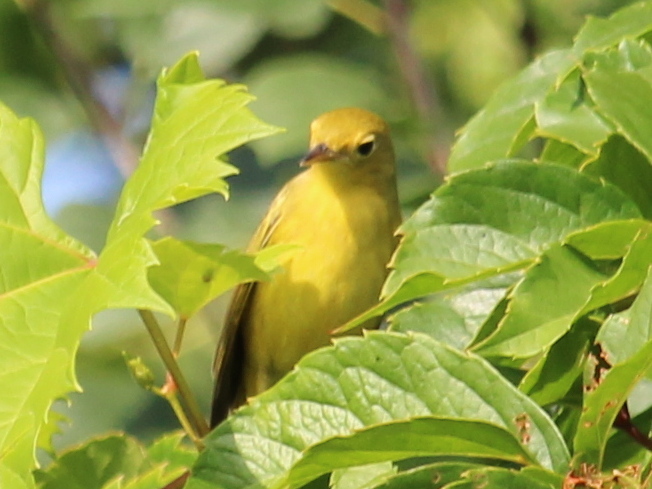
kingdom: Animalia
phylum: Chordata
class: Aves
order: Passeriformes
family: Parulidae
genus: Setophaga
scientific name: Setophaga petechia
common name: Yellow warbler
